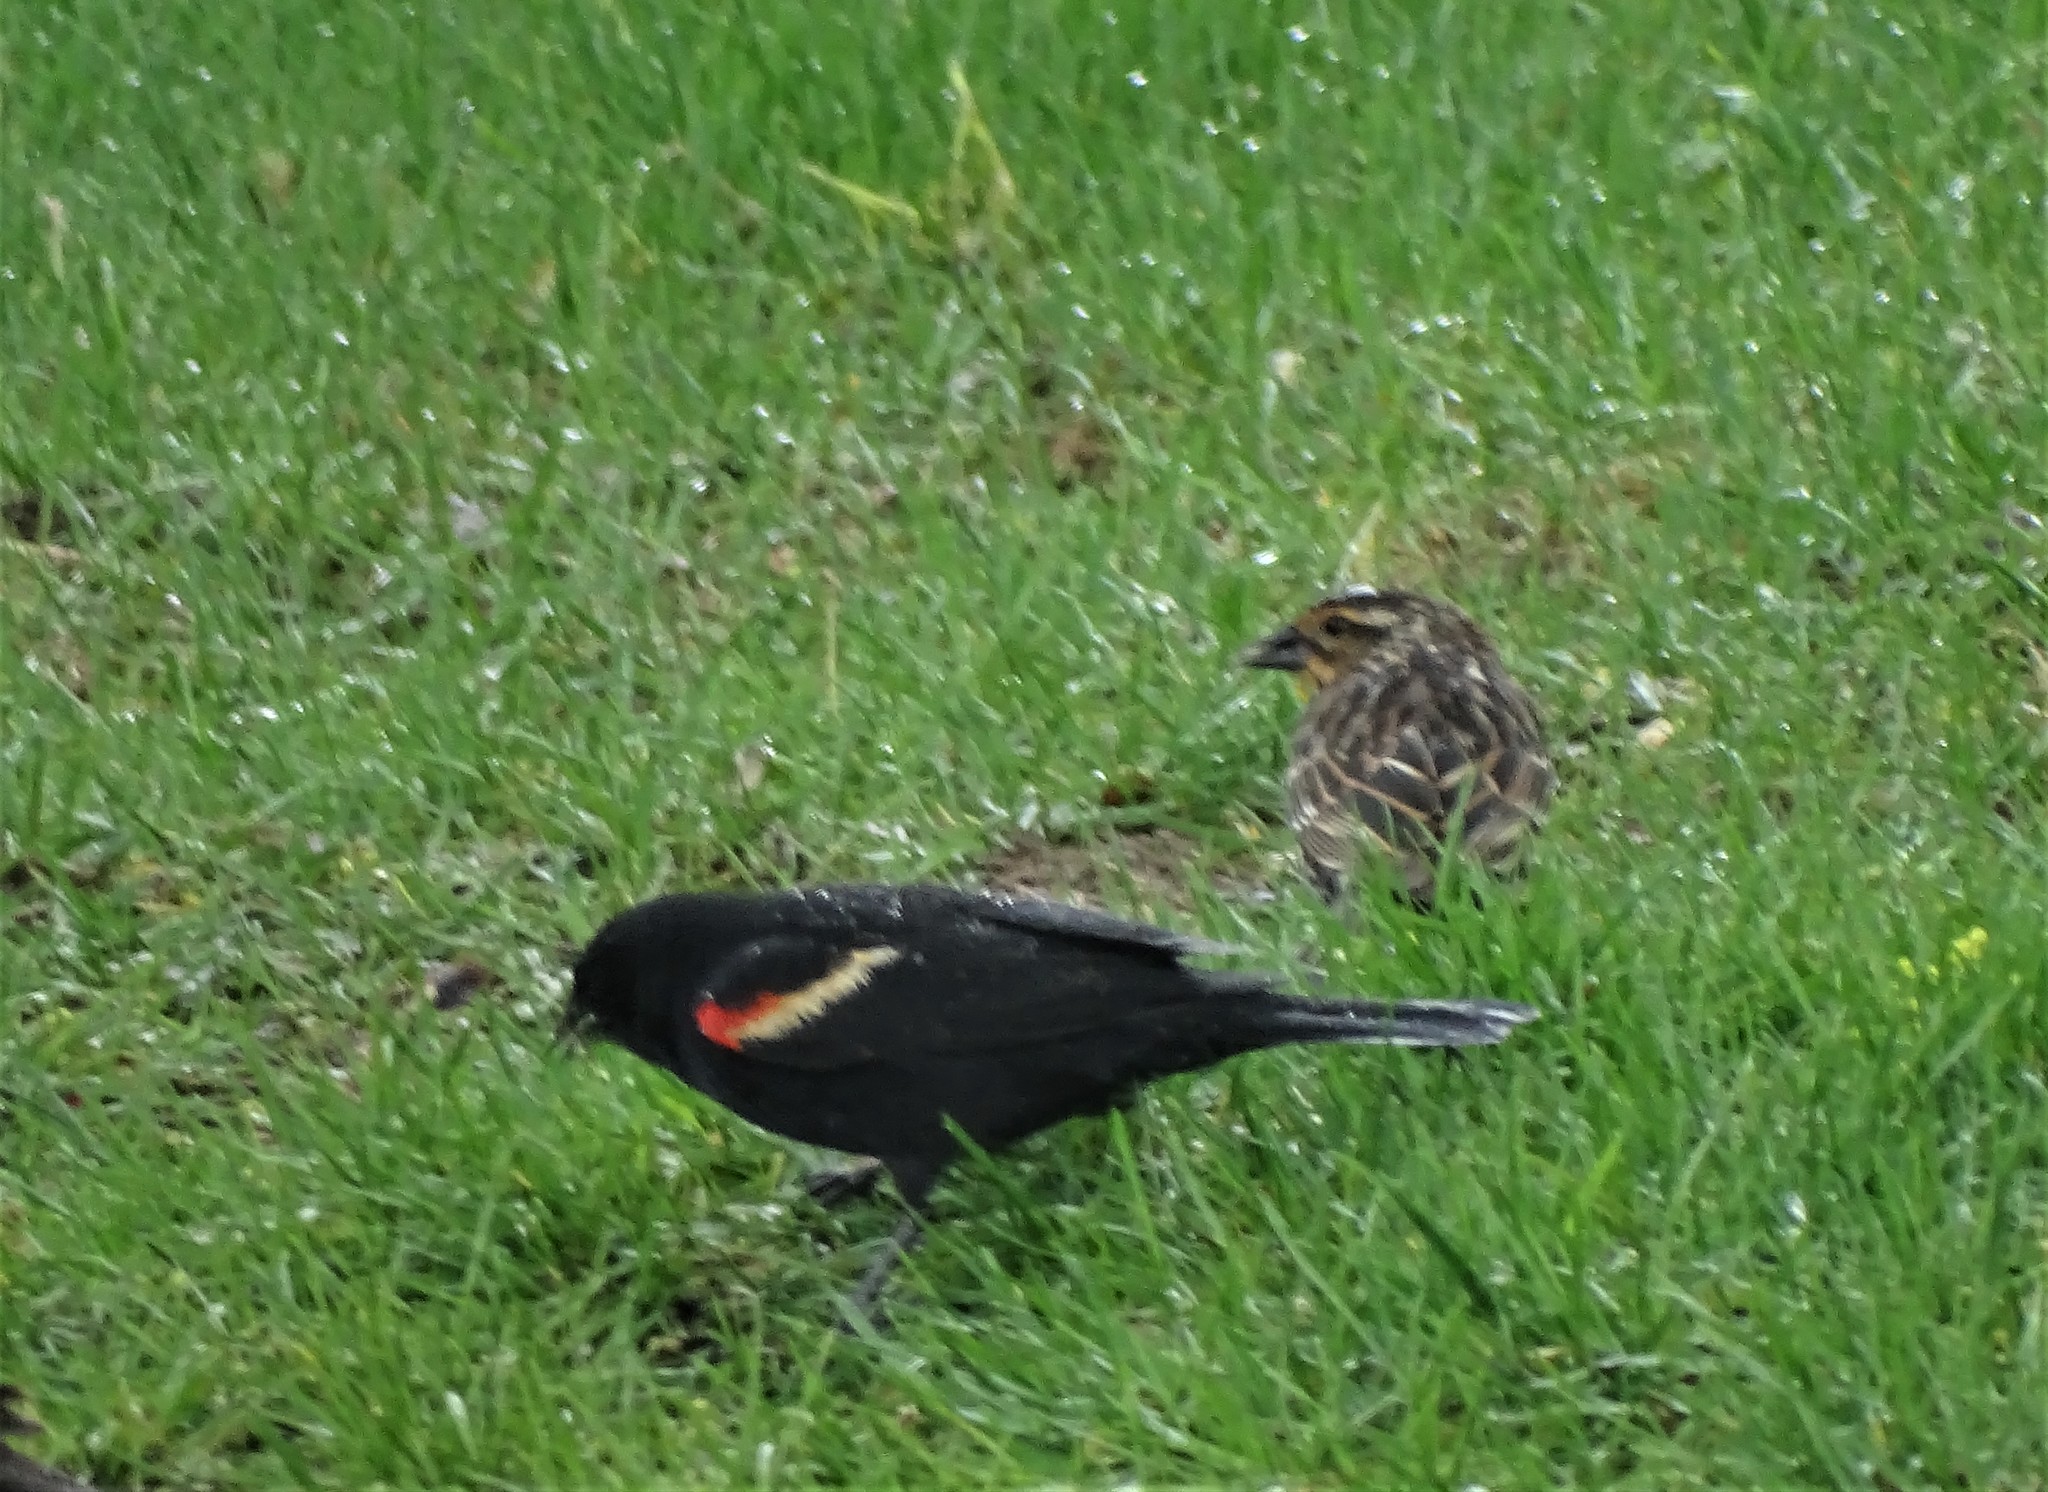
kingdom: Animalia
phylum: Chordata
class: Aves
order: Passeriformes
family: Icteridae
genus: Agelaius
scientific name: Agelaius phoeniceus
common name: Red-winged blackbird
